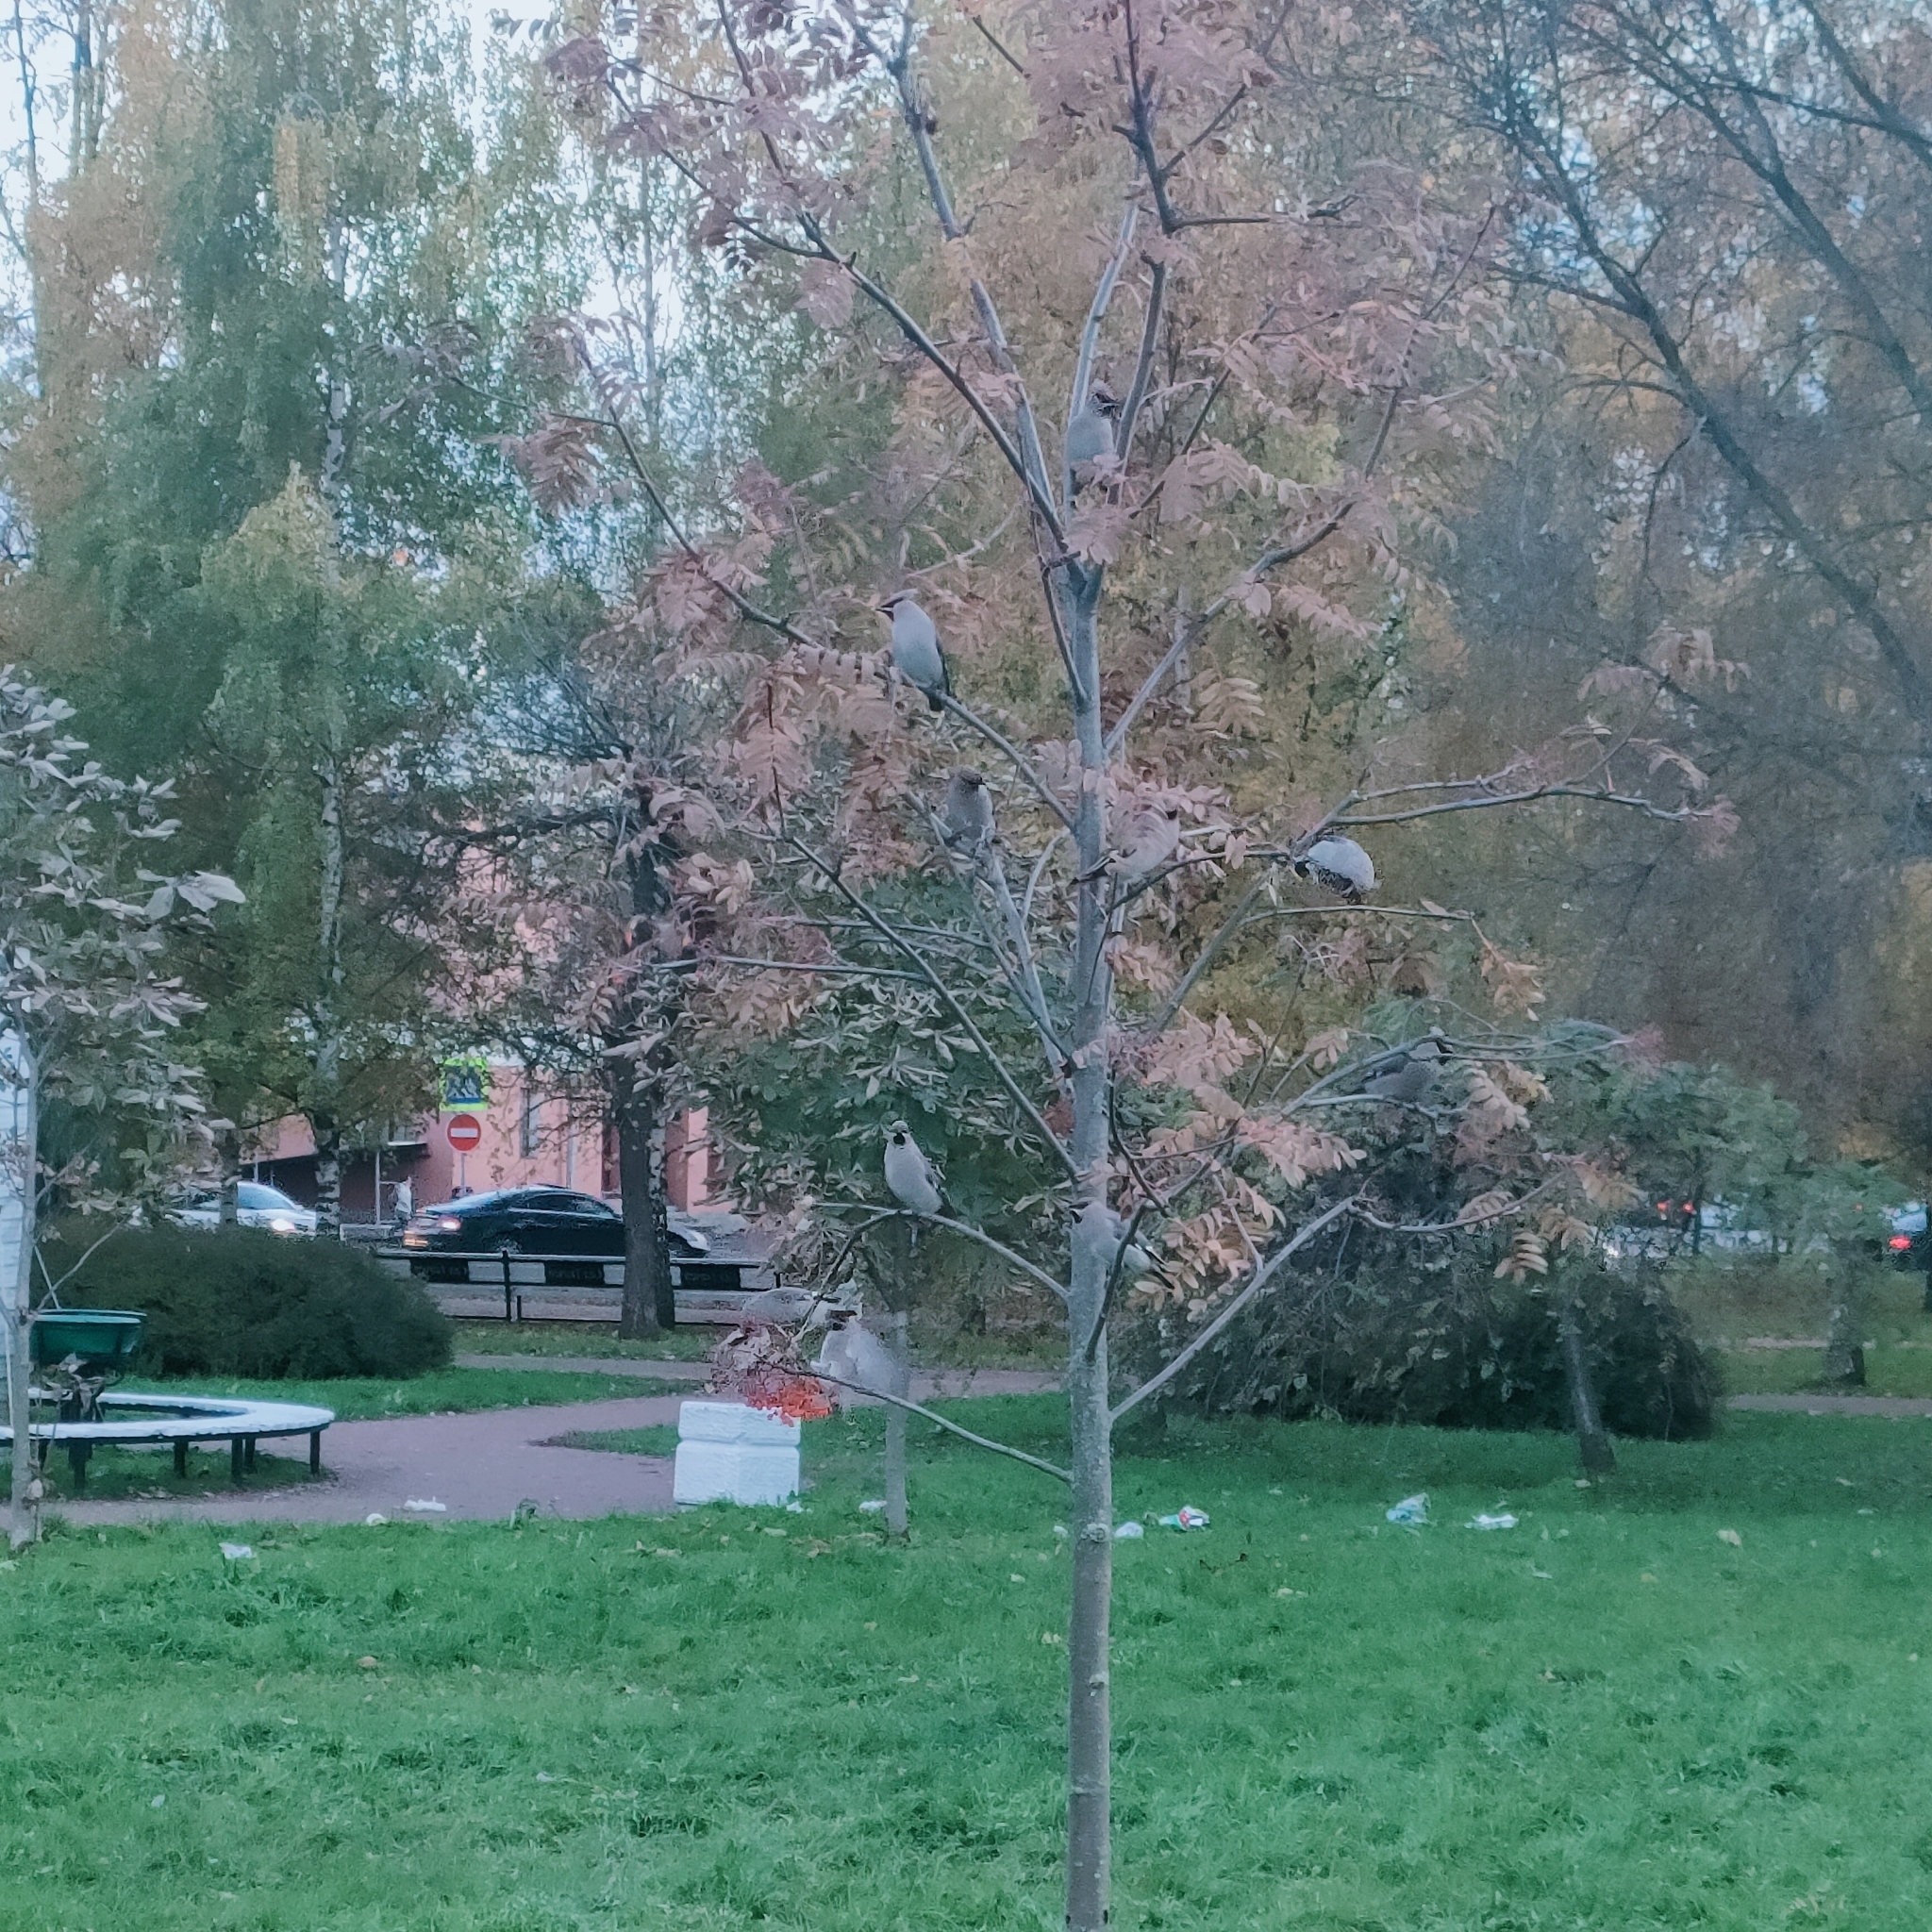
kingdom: Animalia
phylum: Chordata
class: Aves
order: Passeriformes
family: Bombycillidae
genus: Bombycilla
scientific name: Bombycilla garrulus
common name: Bohemian waxwing
